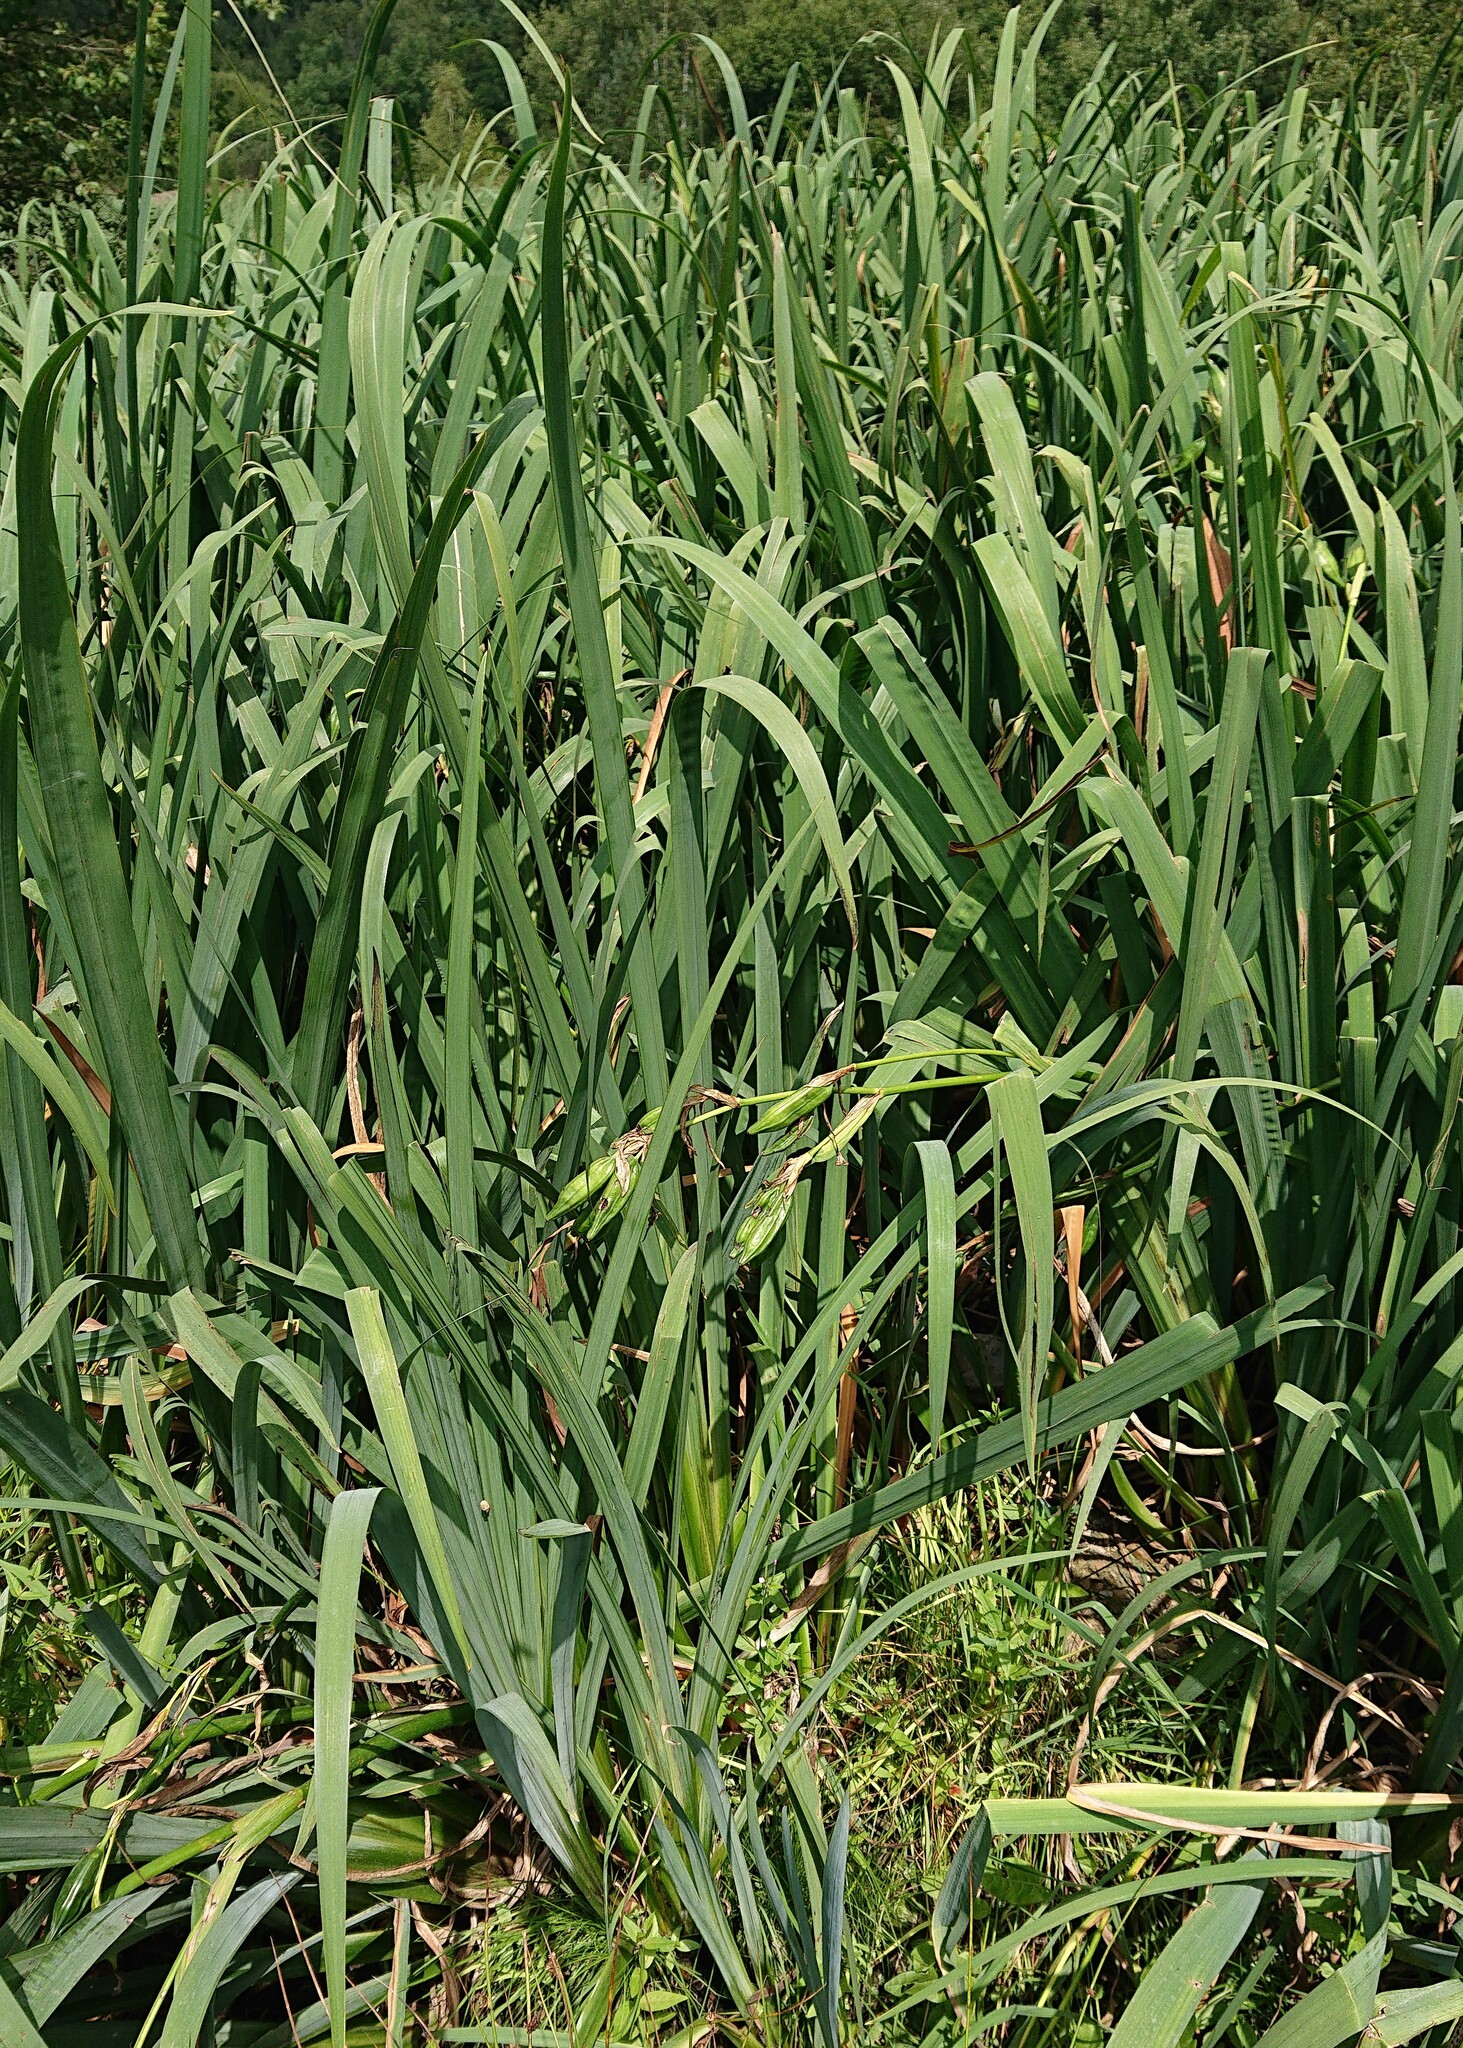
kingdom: Plantae
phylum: Tracheophyta
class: Liliopsida
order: Asparagales
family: Iridaceae
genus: Iris
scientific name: Iris pseudacorus
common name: Yellow flag
